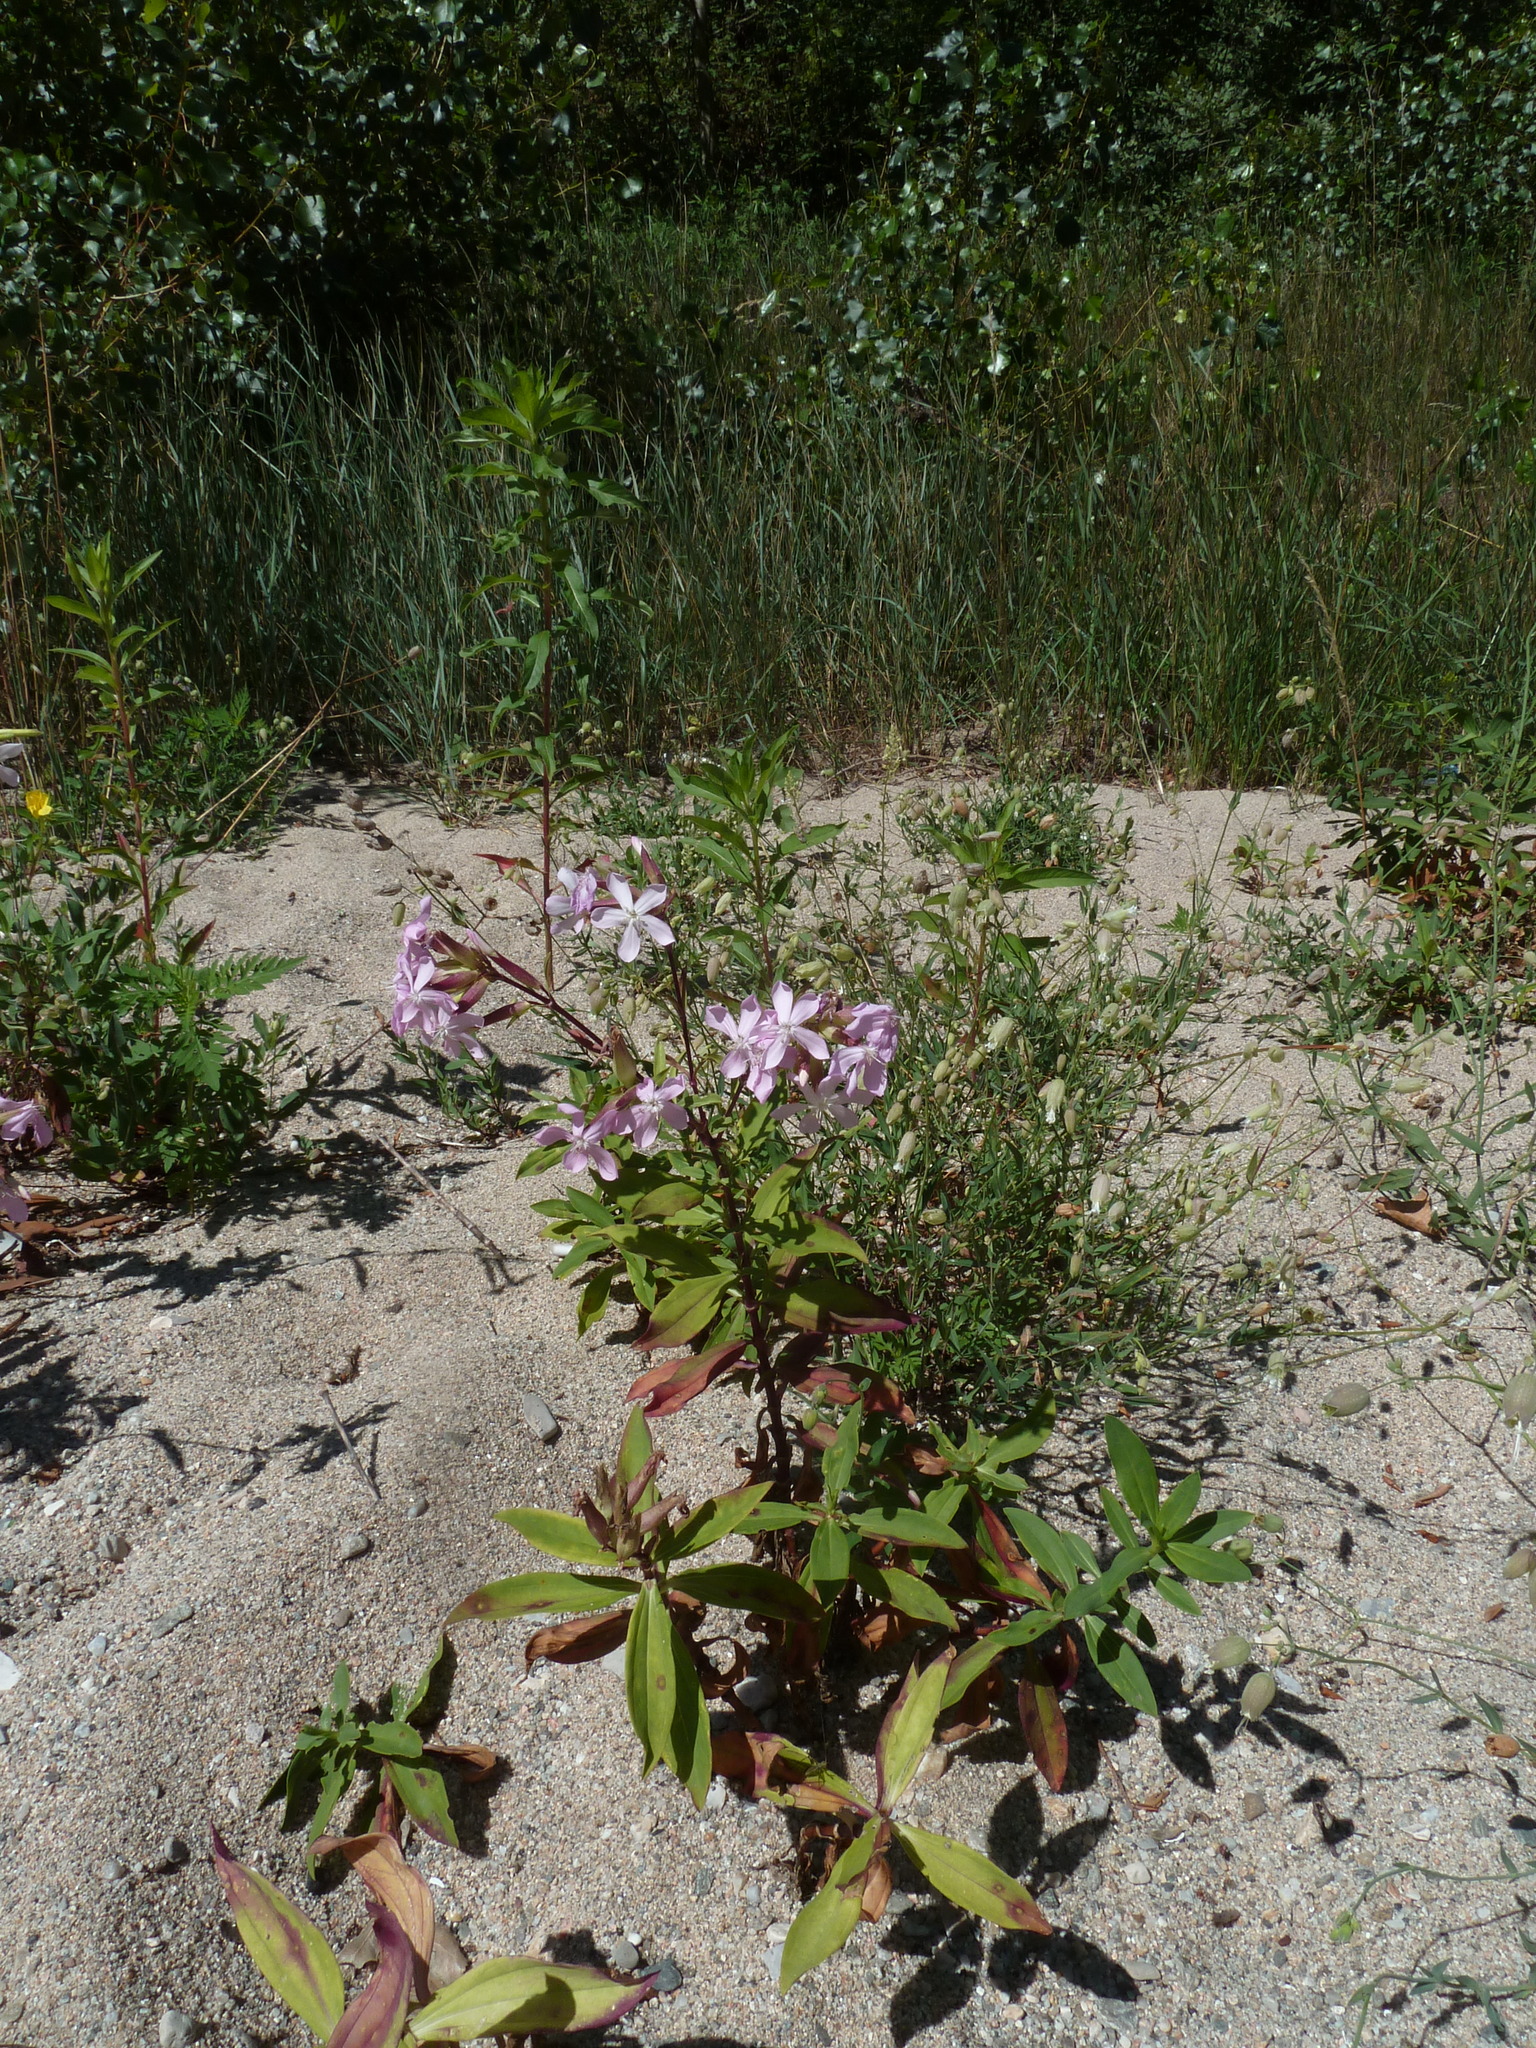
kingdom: Plantae
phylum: Tracheophyta
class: Magnoliopsida
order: Caryophyllales
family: Caryophyllaceae
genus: Saponaria
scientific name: Saponaria officinalis
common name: Soapwort
